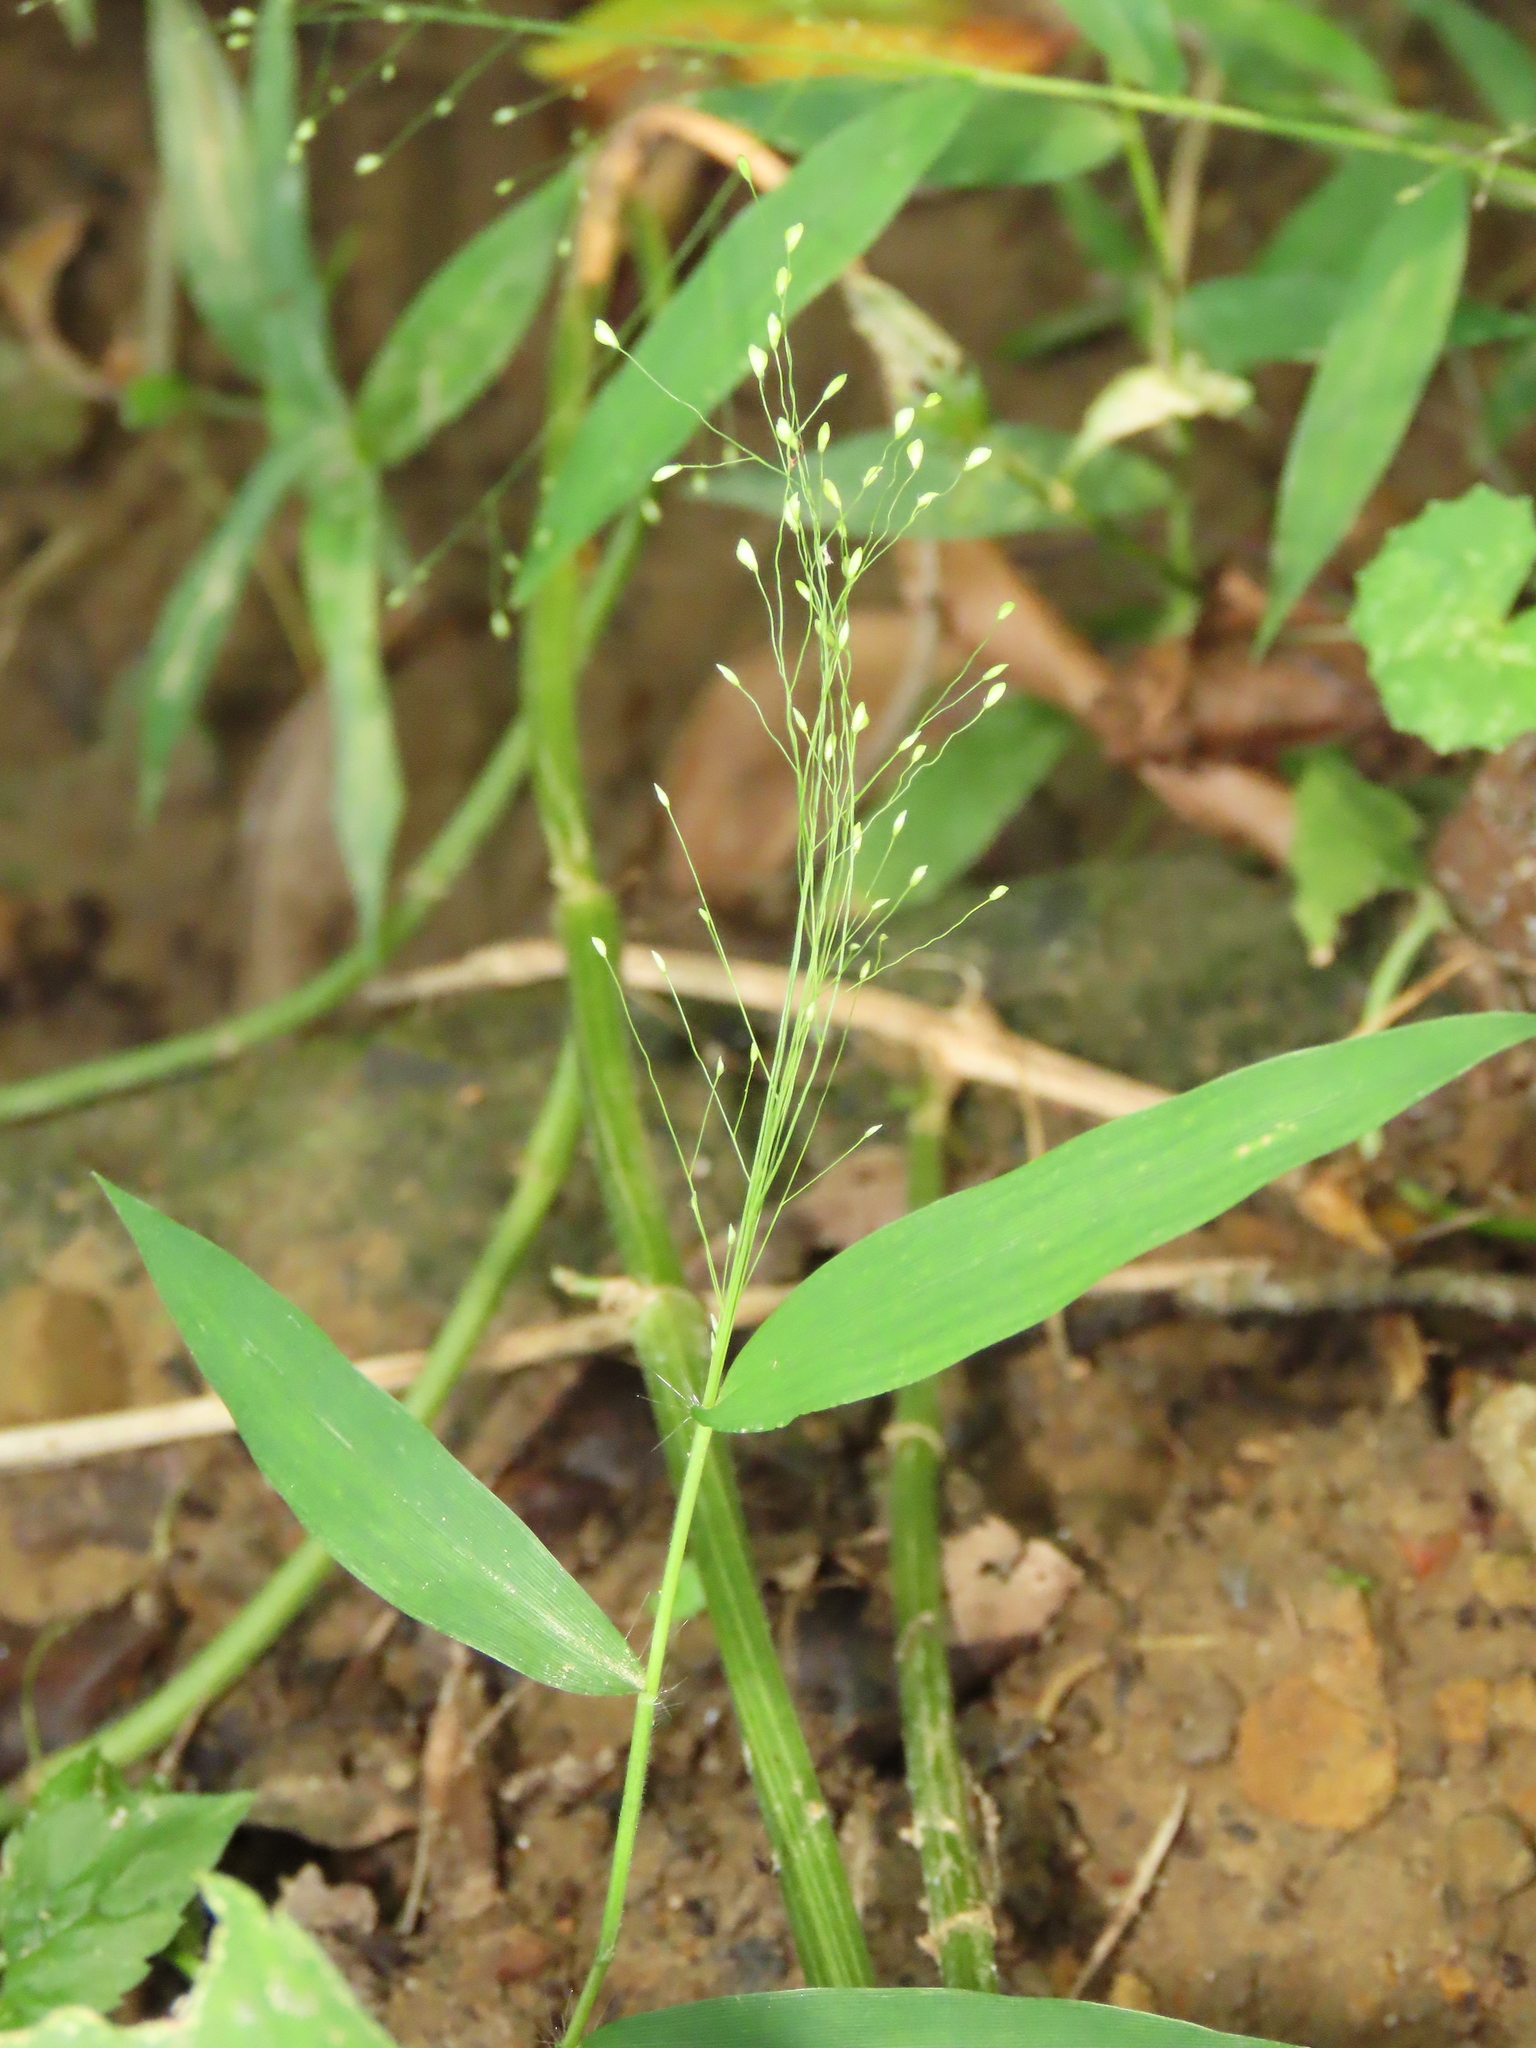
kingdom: Plantae
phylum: Tracheophyta
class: Liliopsida
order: Poales
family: Poaceae
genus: Cyrtococcum
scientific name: Cyrtococcum patens
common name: Broad-leaved bowgrass
